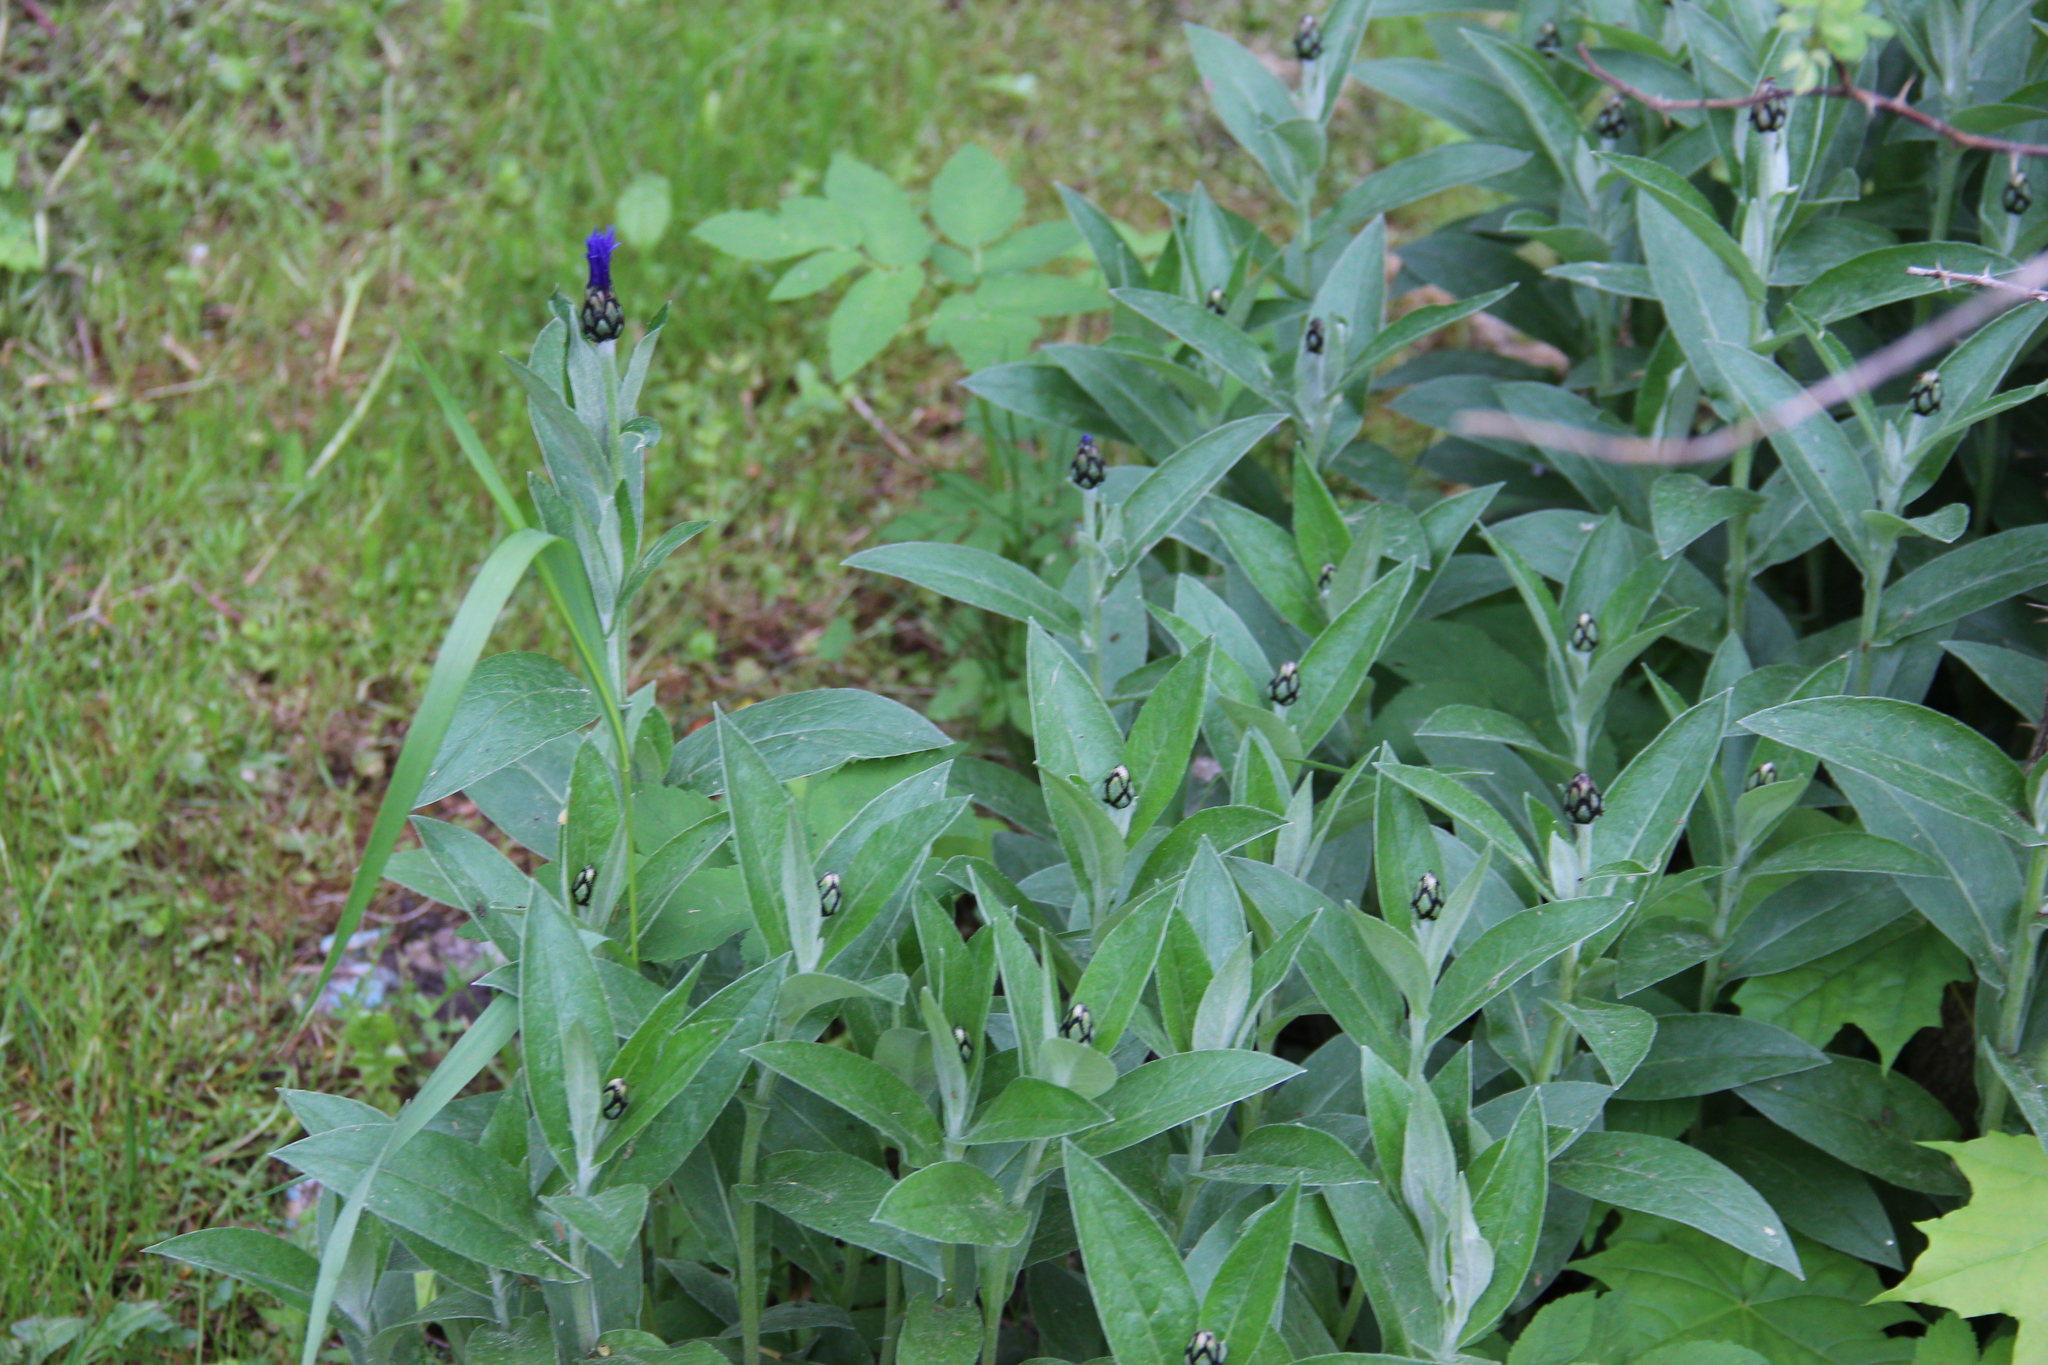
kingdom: Plantae
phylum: Tracheophyta
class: Magnoliopsida
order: Asterales
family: Asteraceae
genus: Centaurea
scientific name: Centaurea montana
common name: Perennial cornflower
